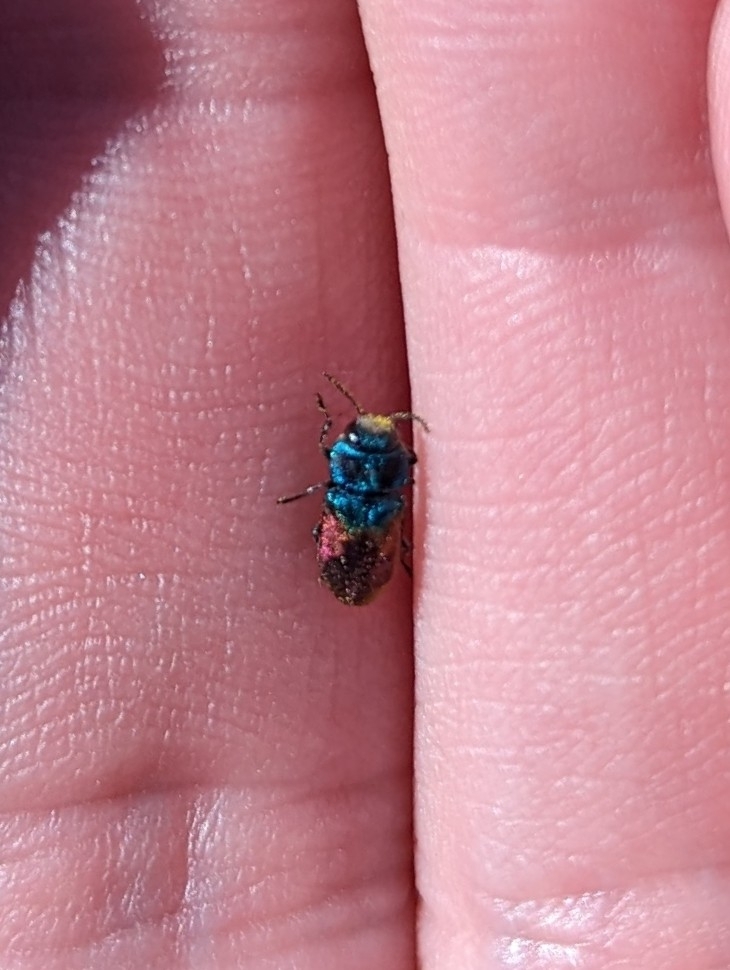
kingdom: Animalia
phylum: Arthropoda
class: Insecta
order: Coleoptera
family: Buprestidae
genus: Anthaxia
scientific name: Anthaxia salicis
